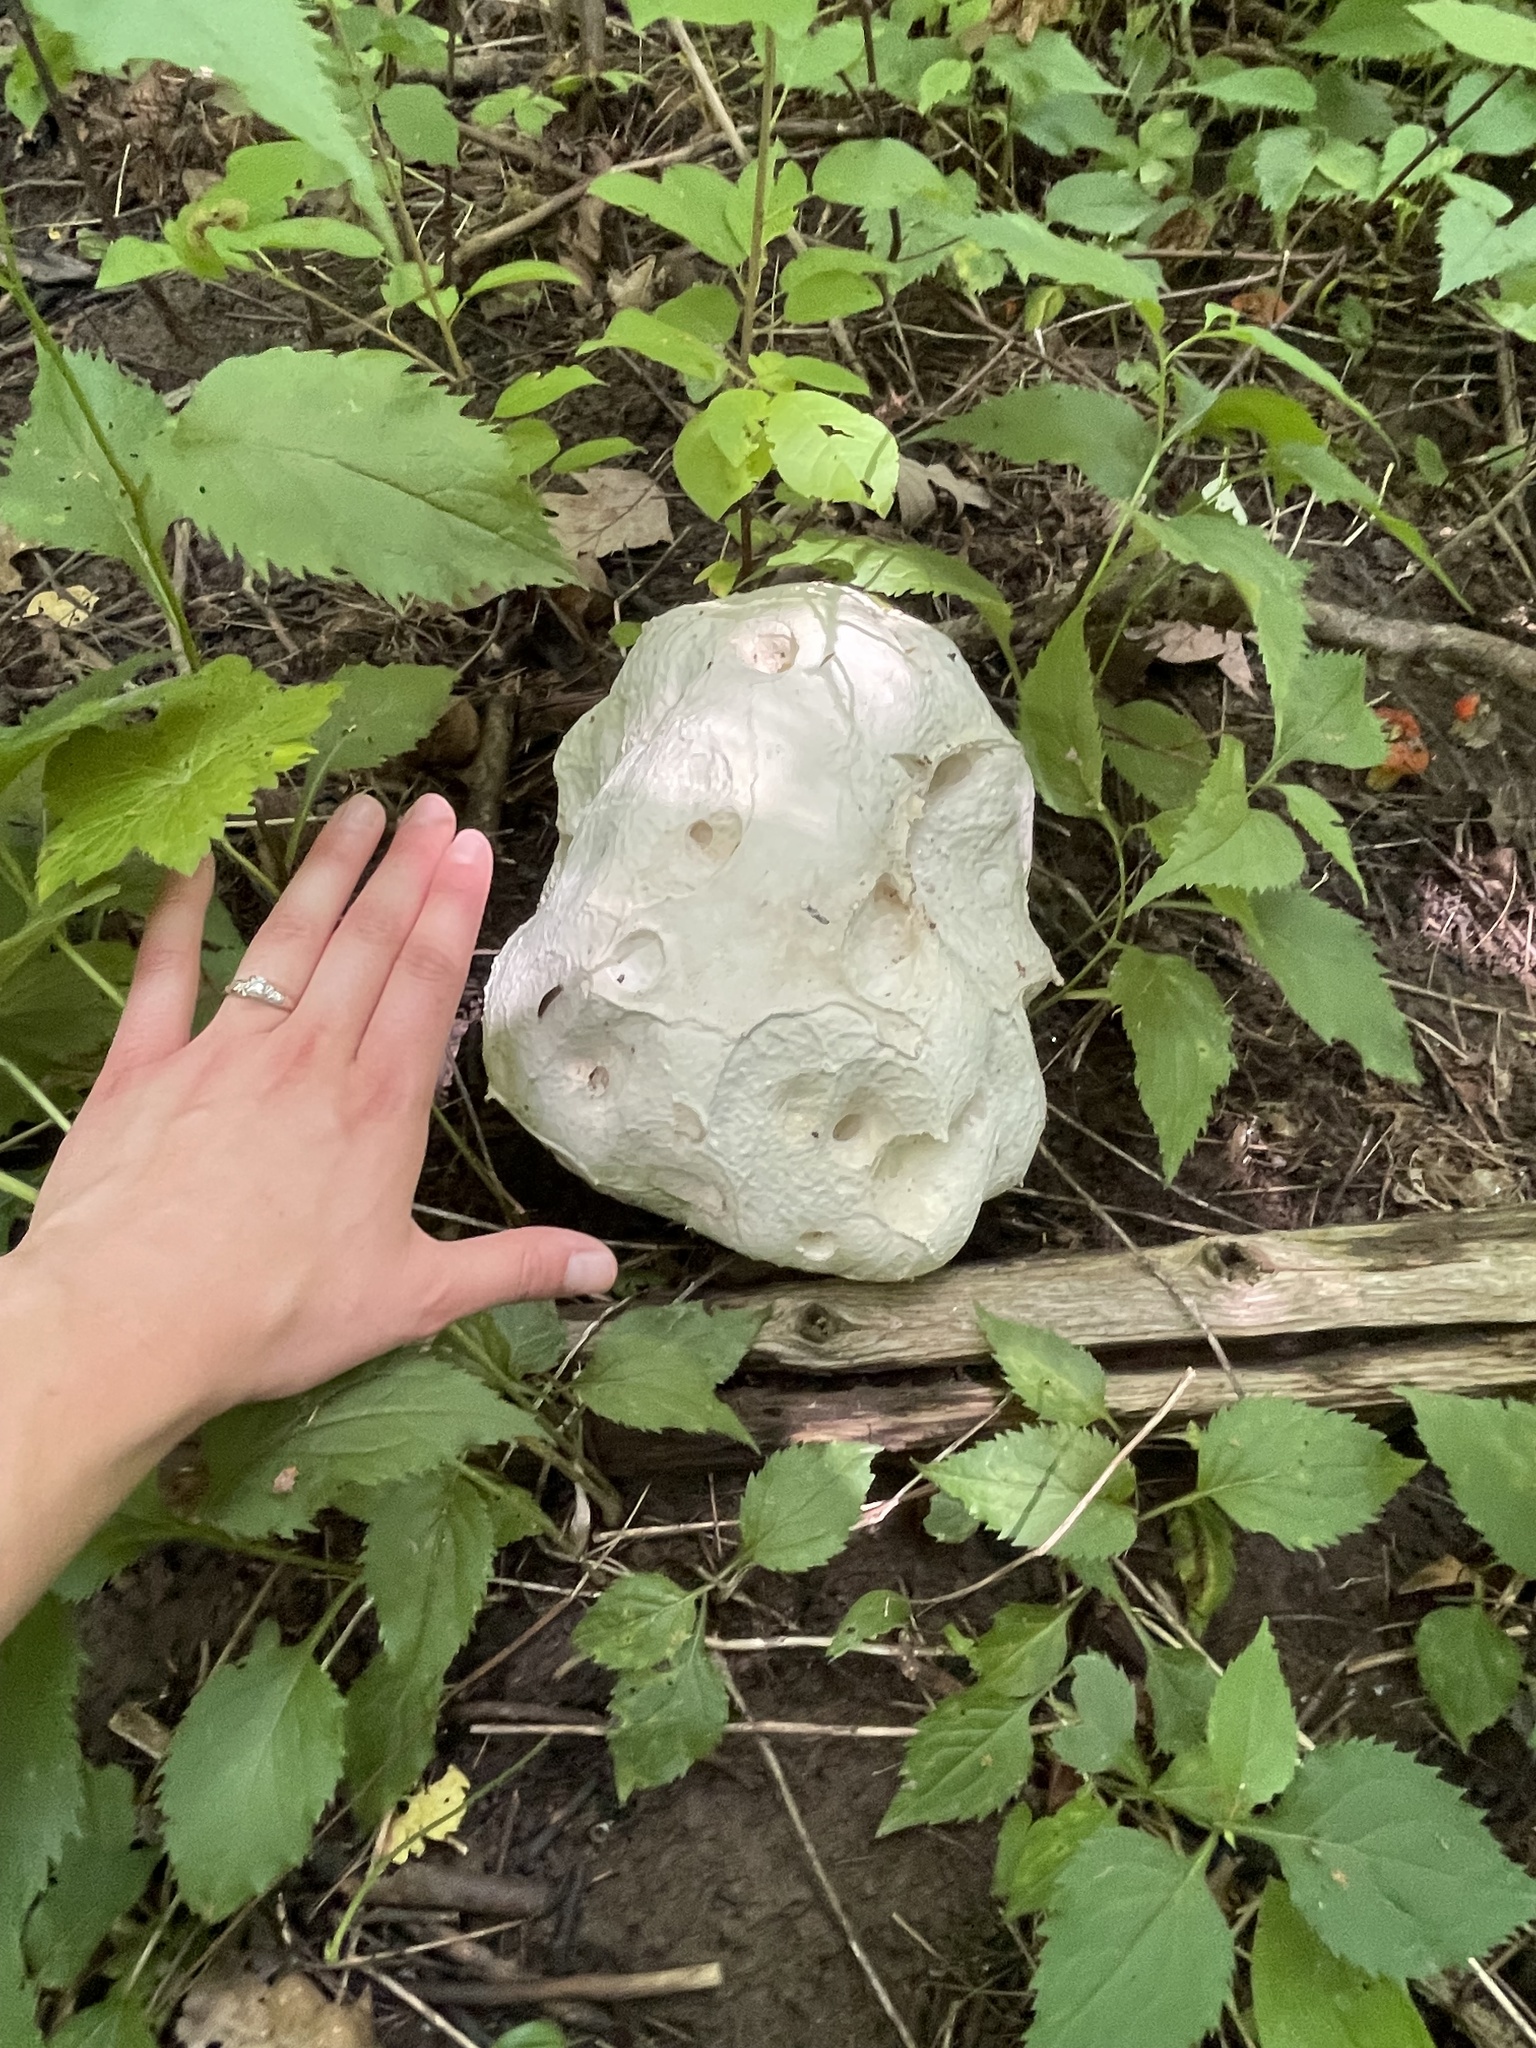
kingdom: Fungi
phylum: Basidiomycota
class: Agaricomycetes
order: Agaricales
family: Lycoperdaceae
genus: Calvatia
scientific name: Calvatia gigantea
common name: Giant puffball
